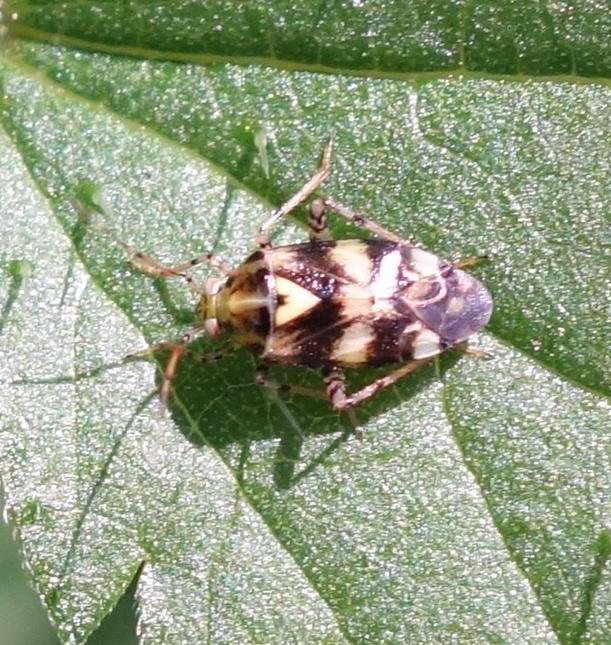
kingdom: Animalia
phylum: Arthropoda
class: Insecta
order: Hemiptera
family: Miridae
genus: Liocoris
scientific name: Liocoris tripustulatus
